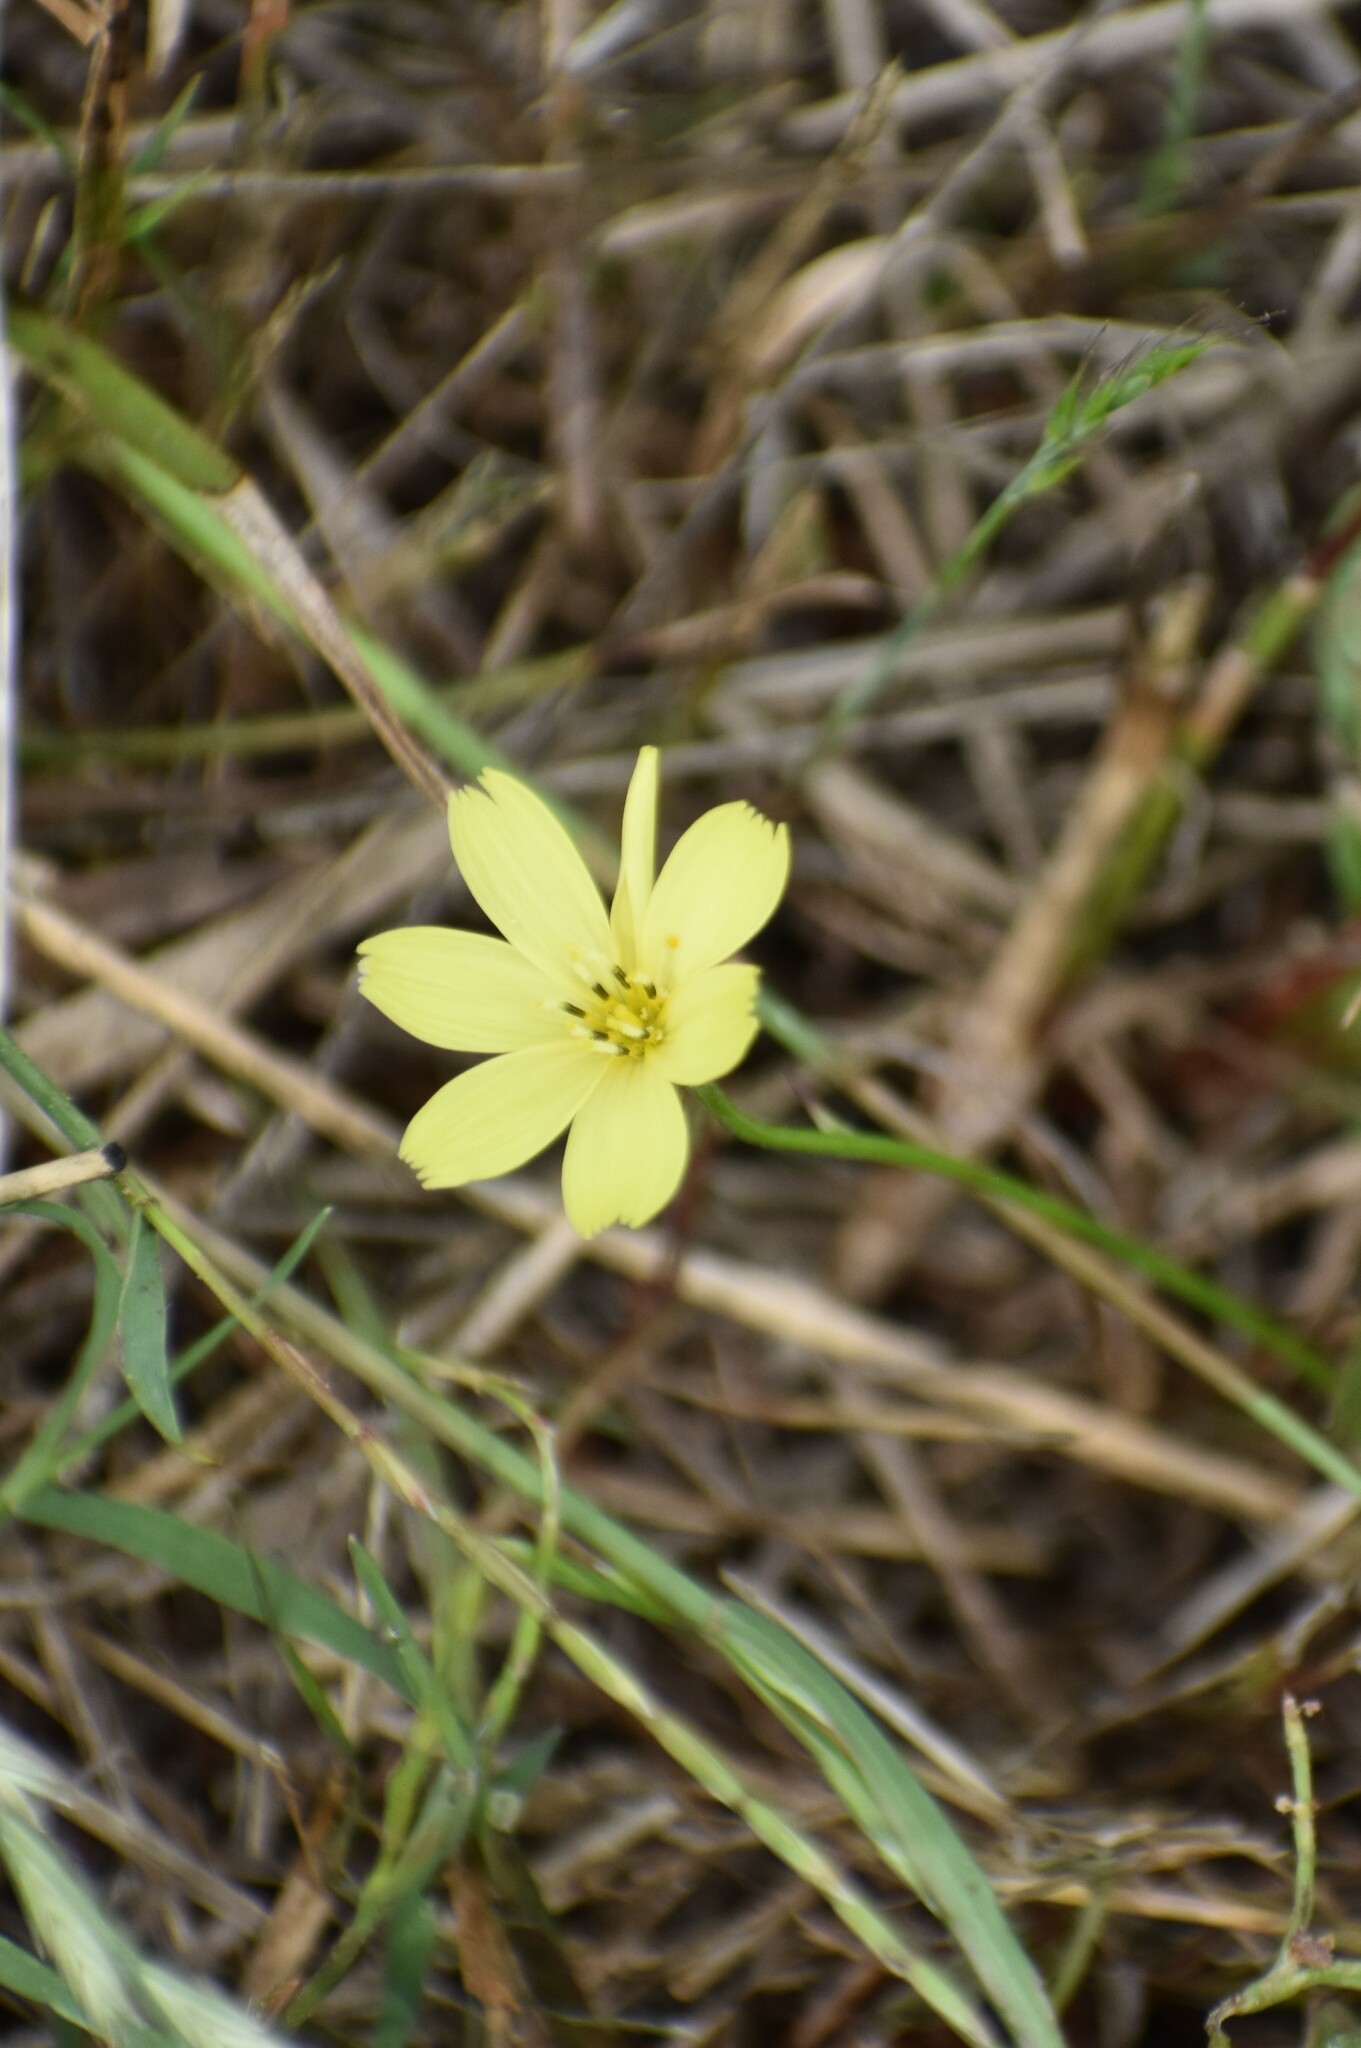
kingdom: Plantae
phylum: Tracheophyta
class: Magnoliopsida
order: Asterales
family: Asteraceae
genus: Pyrrhopappus
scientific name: Pyrrhopappus pauciflorus
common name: Texas false dandelion
